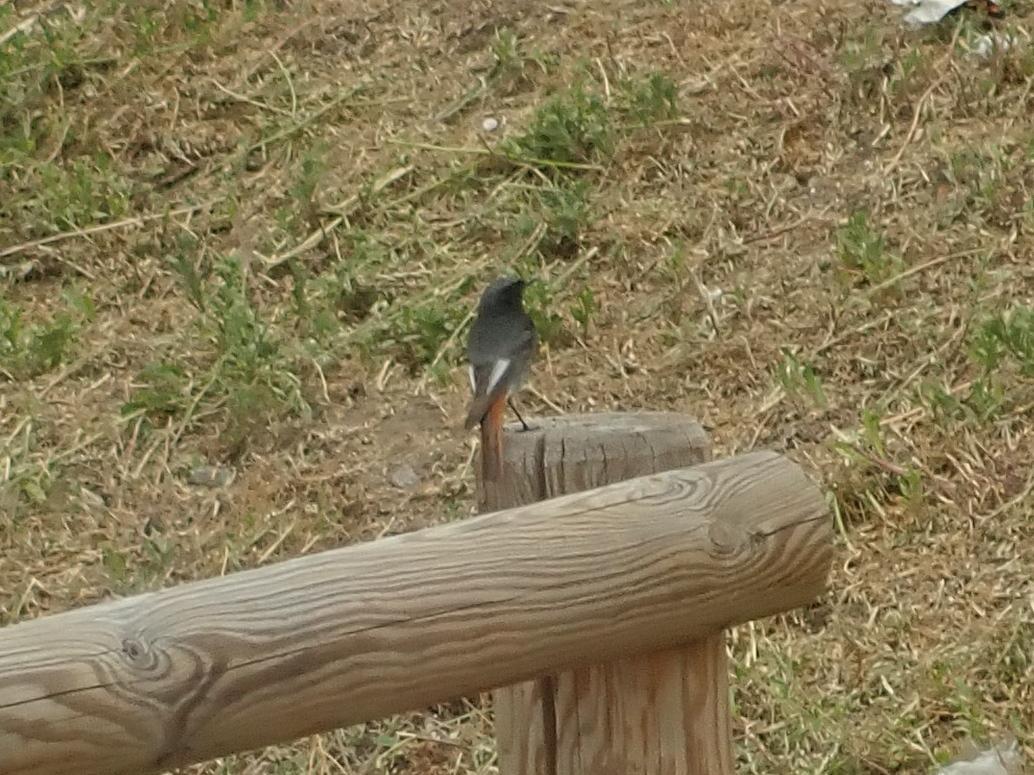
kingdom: Animalia
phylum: Chordata
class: Aves
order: Passeriformes
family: Muscicapidae
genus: Phoenicurus
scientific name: Phoenicurus ochruros
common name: Black redstart
